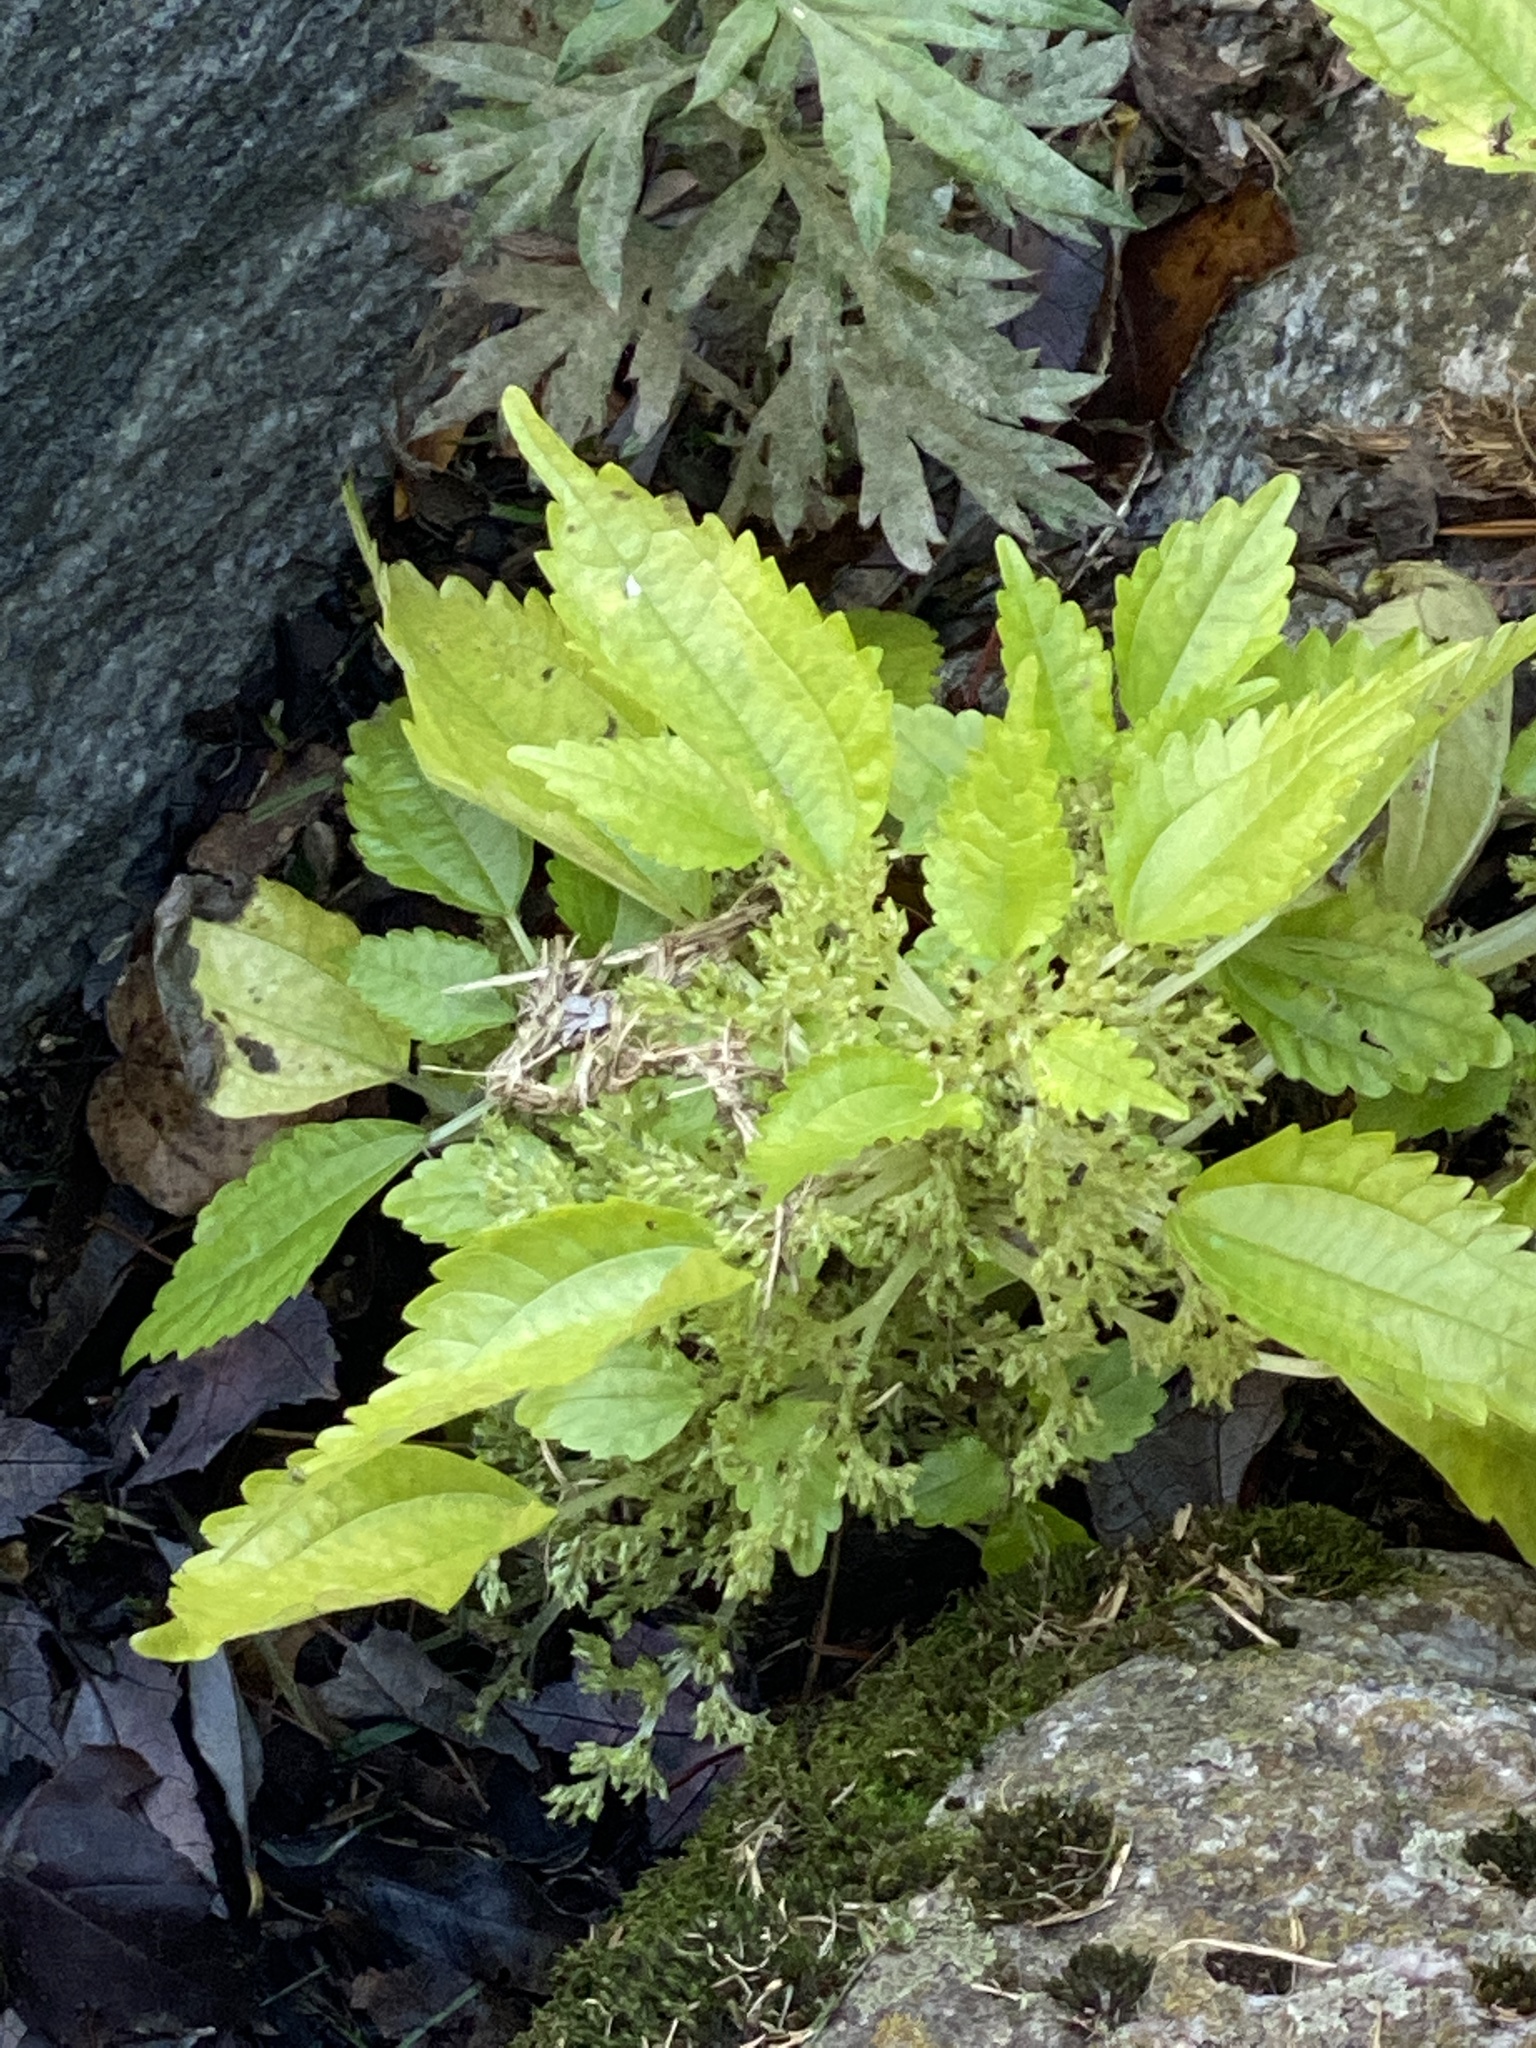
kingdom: Plantae
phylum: Tracheophyta
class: Magnoliopsida
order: Rosales
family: Urticaceae
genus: Pilea
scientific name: Pilea pumila
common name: Clearweed
